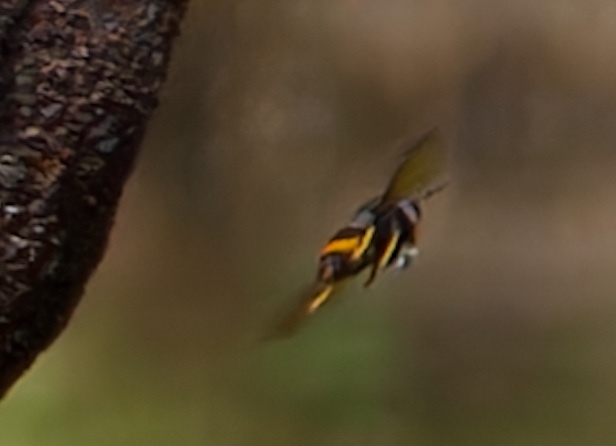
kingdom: Animalia
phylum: Arthropoda
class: Insecta
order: Hymenoptera
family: Vespidae
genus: Vespa
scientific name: Vespa velutina
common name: Asian hornet
